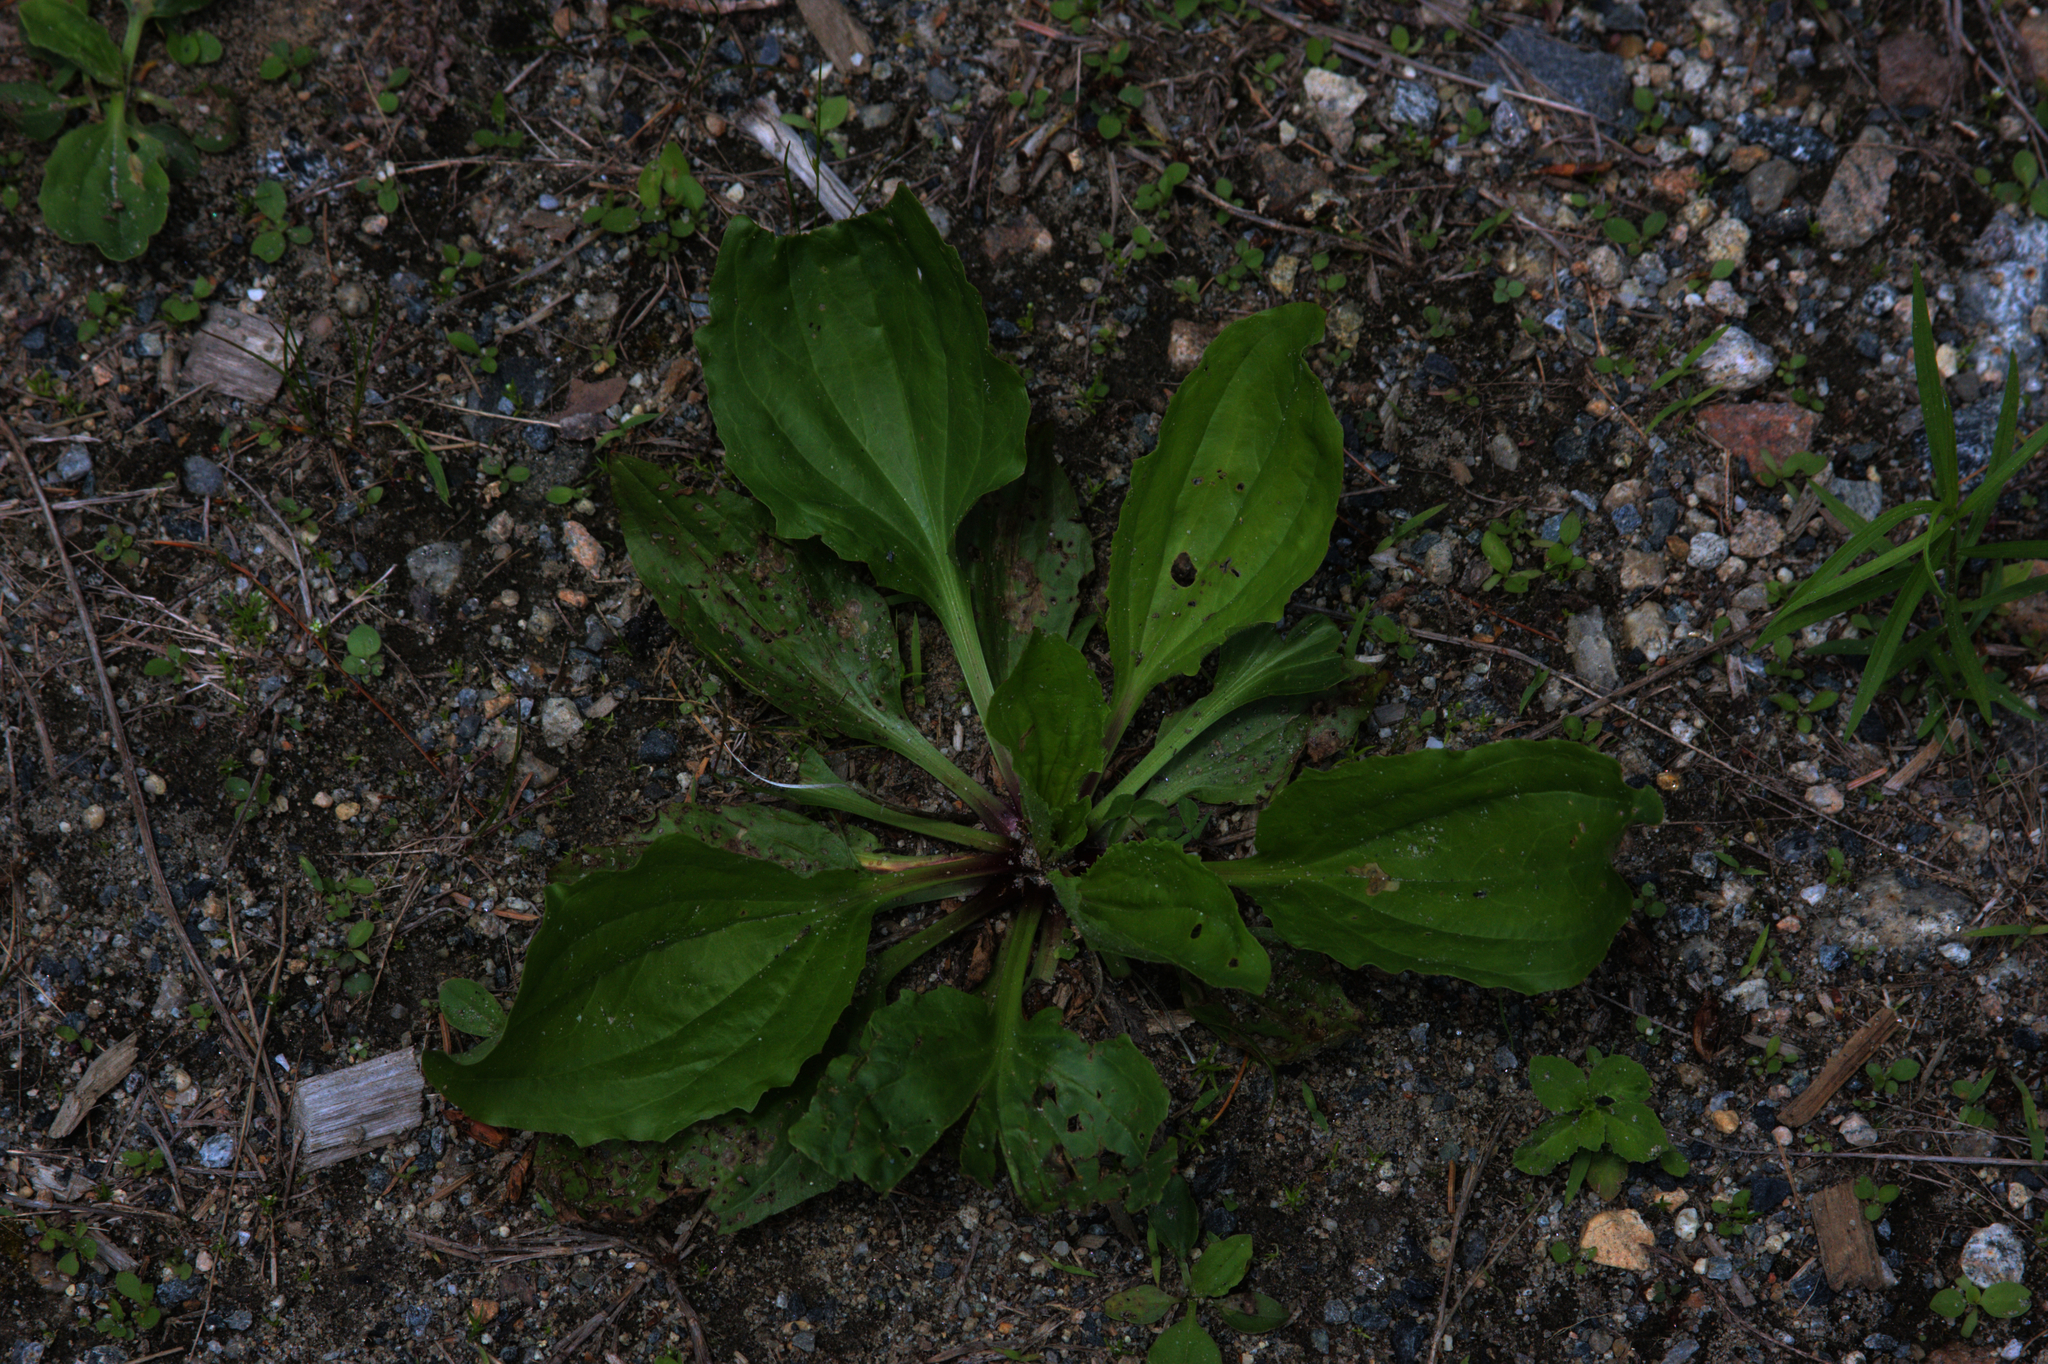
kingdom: Plantae
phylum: Tracheophyta
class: Magnoliopsida
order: Lamiales
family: Plantaginaceae
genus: Plantago
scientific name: Plantago rugelii
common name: American plantain
